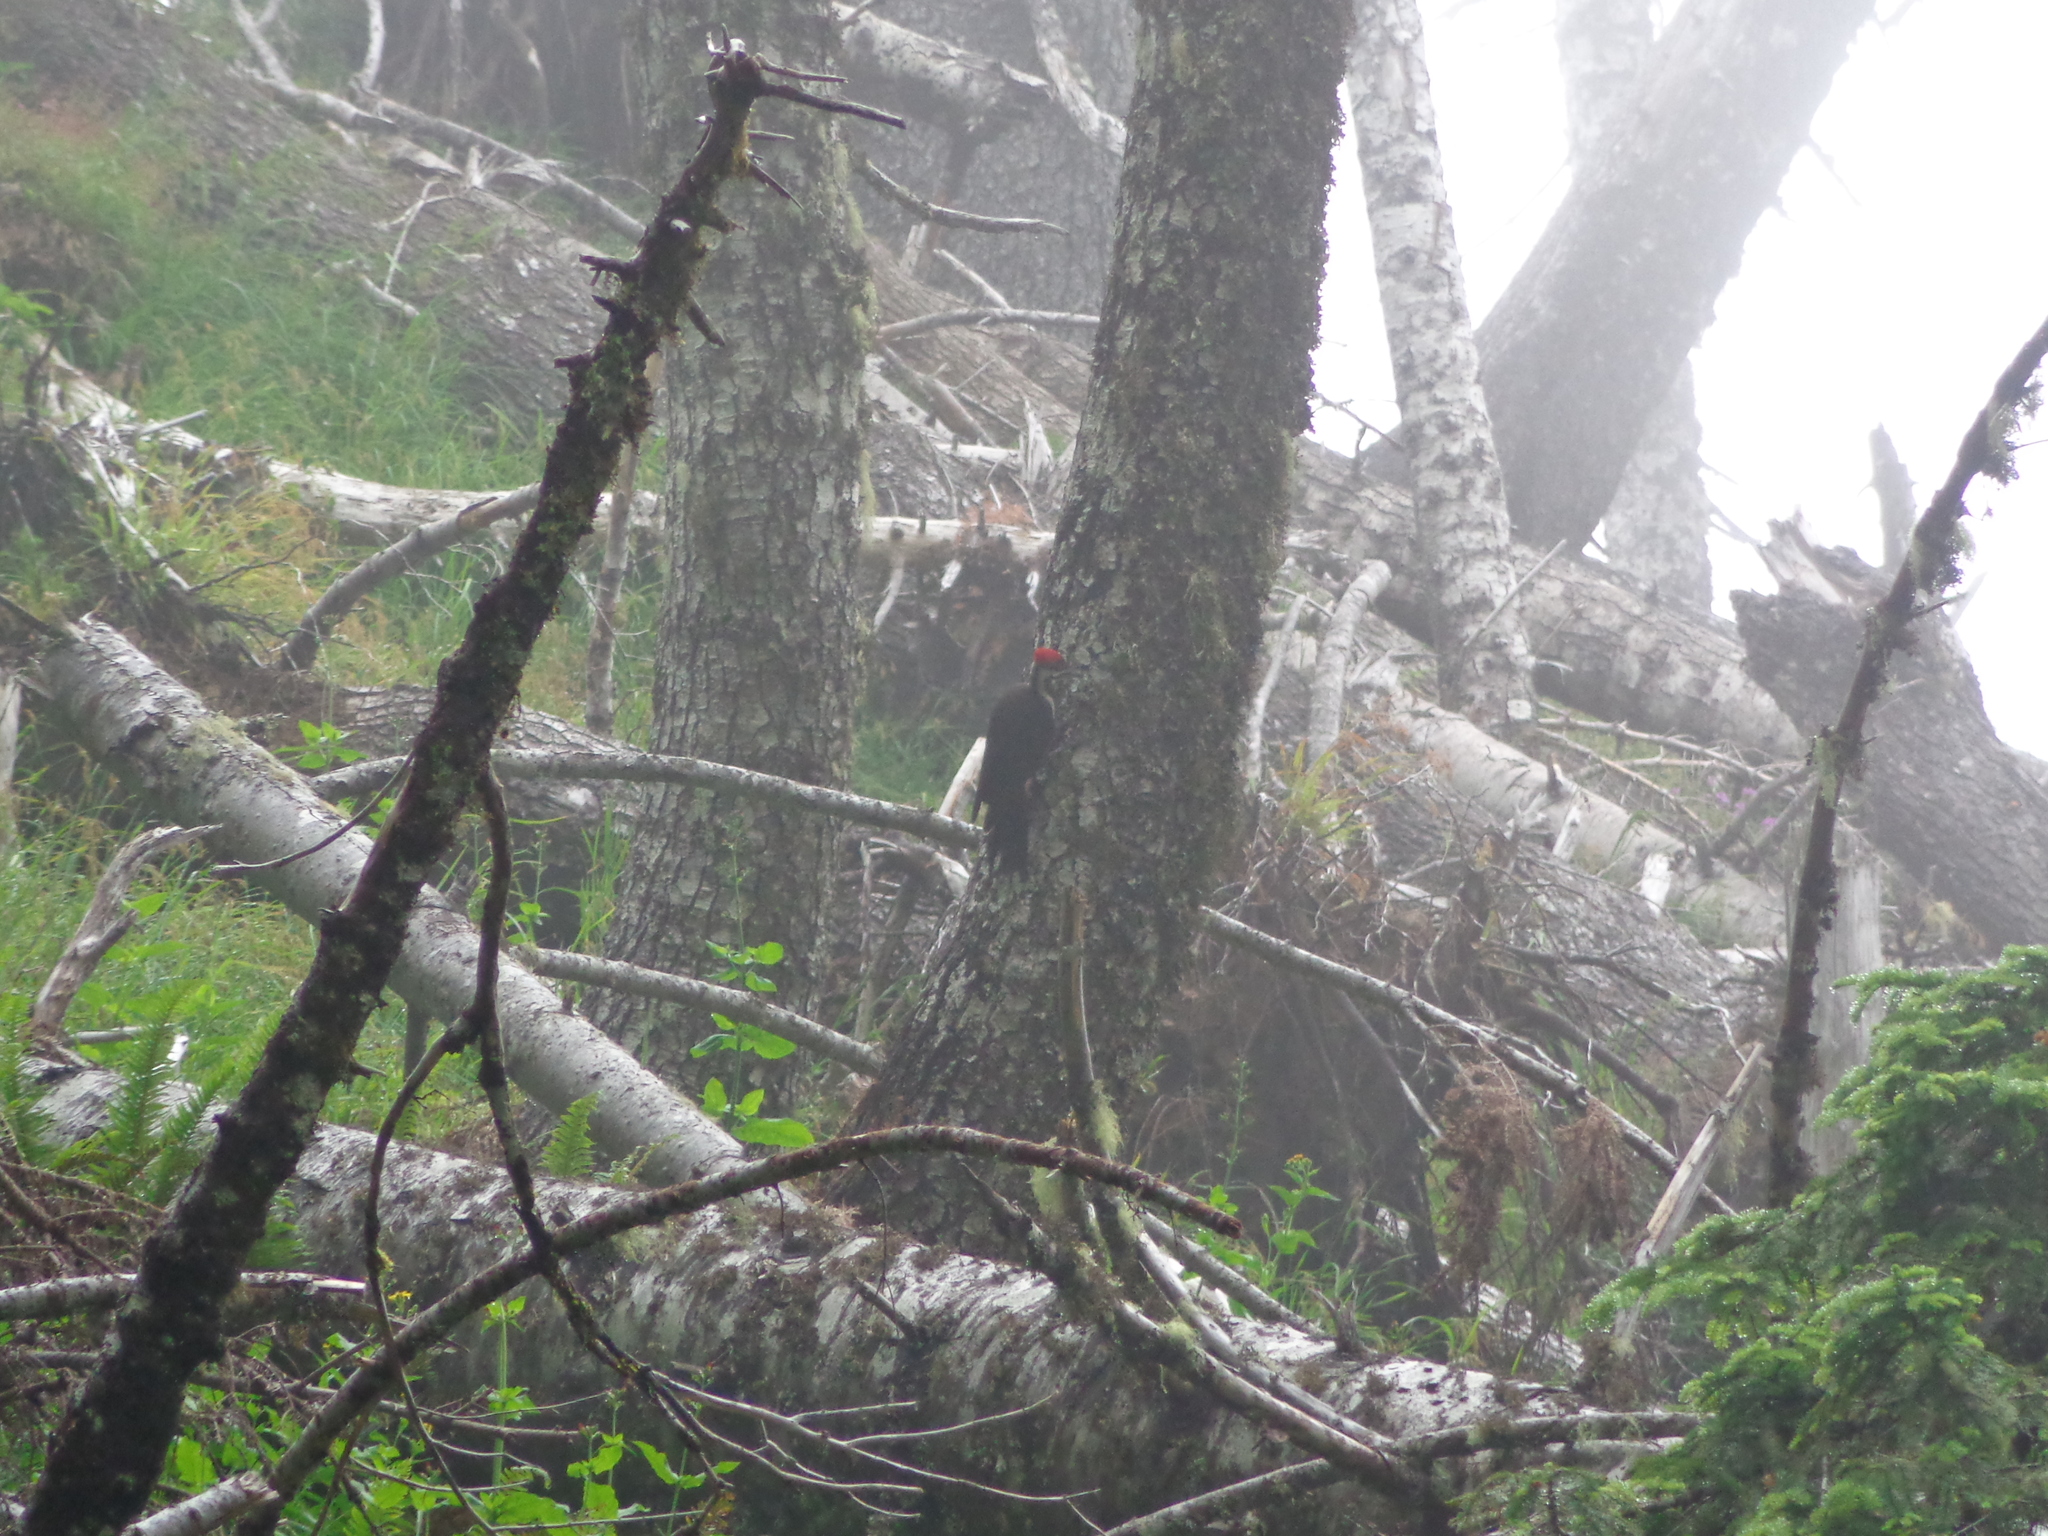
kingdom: Animalia
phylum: Chordata
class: Aves
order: Piciformes
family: Picidae
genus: Dryocopus
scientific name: Dryocopus pileatus
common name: Pileated woodpecker
